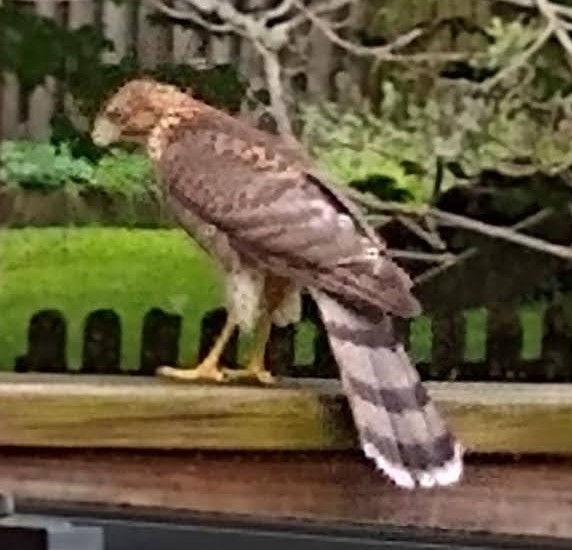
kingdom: Animalia
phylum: Chordata
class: Aves
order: Accipitriformes
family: Accipitridae
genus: Accipiter
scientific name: Accipiter cooperii
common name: Cooper's hawk
